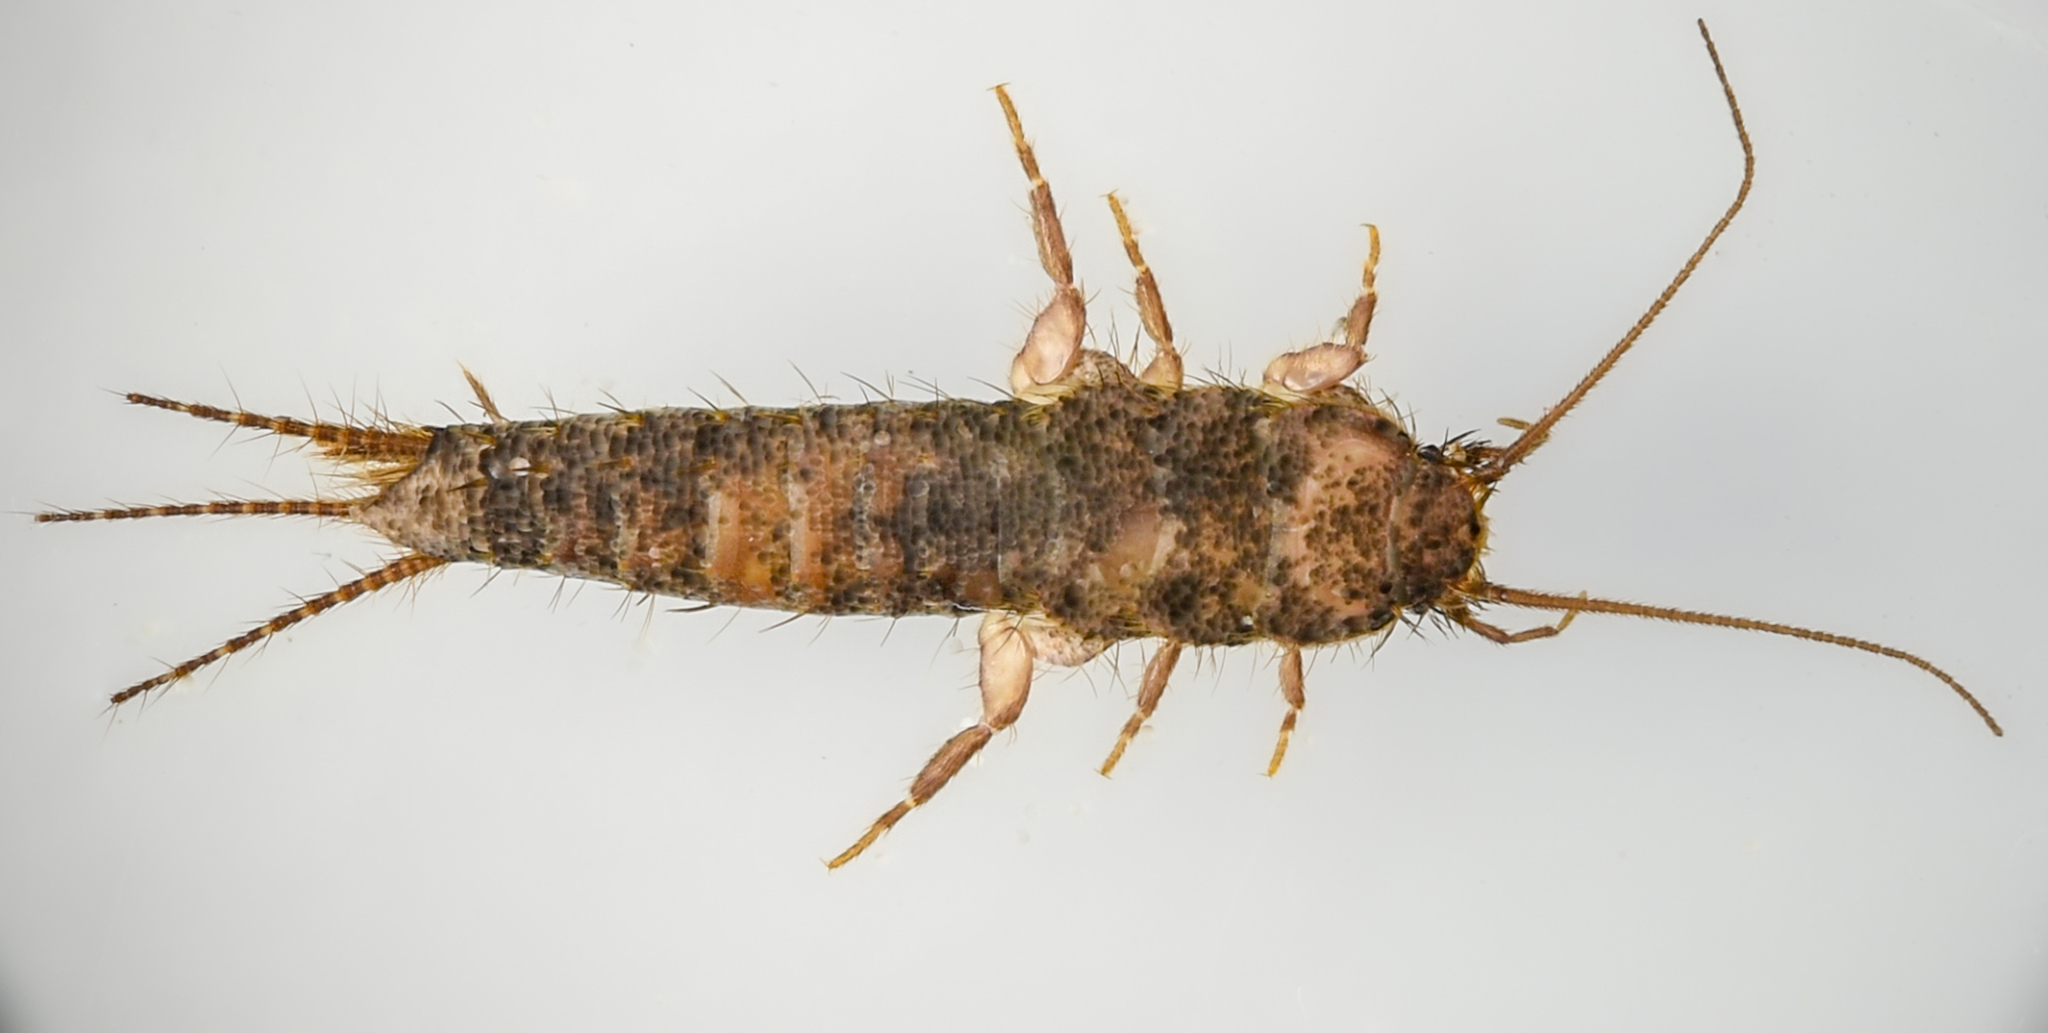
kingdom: Animalia
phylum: Arthropoda
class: Insecta
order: Zygentoma
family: Lepismatidae
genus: Allacrotelsa
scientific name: Allacrotelsa spinulata
